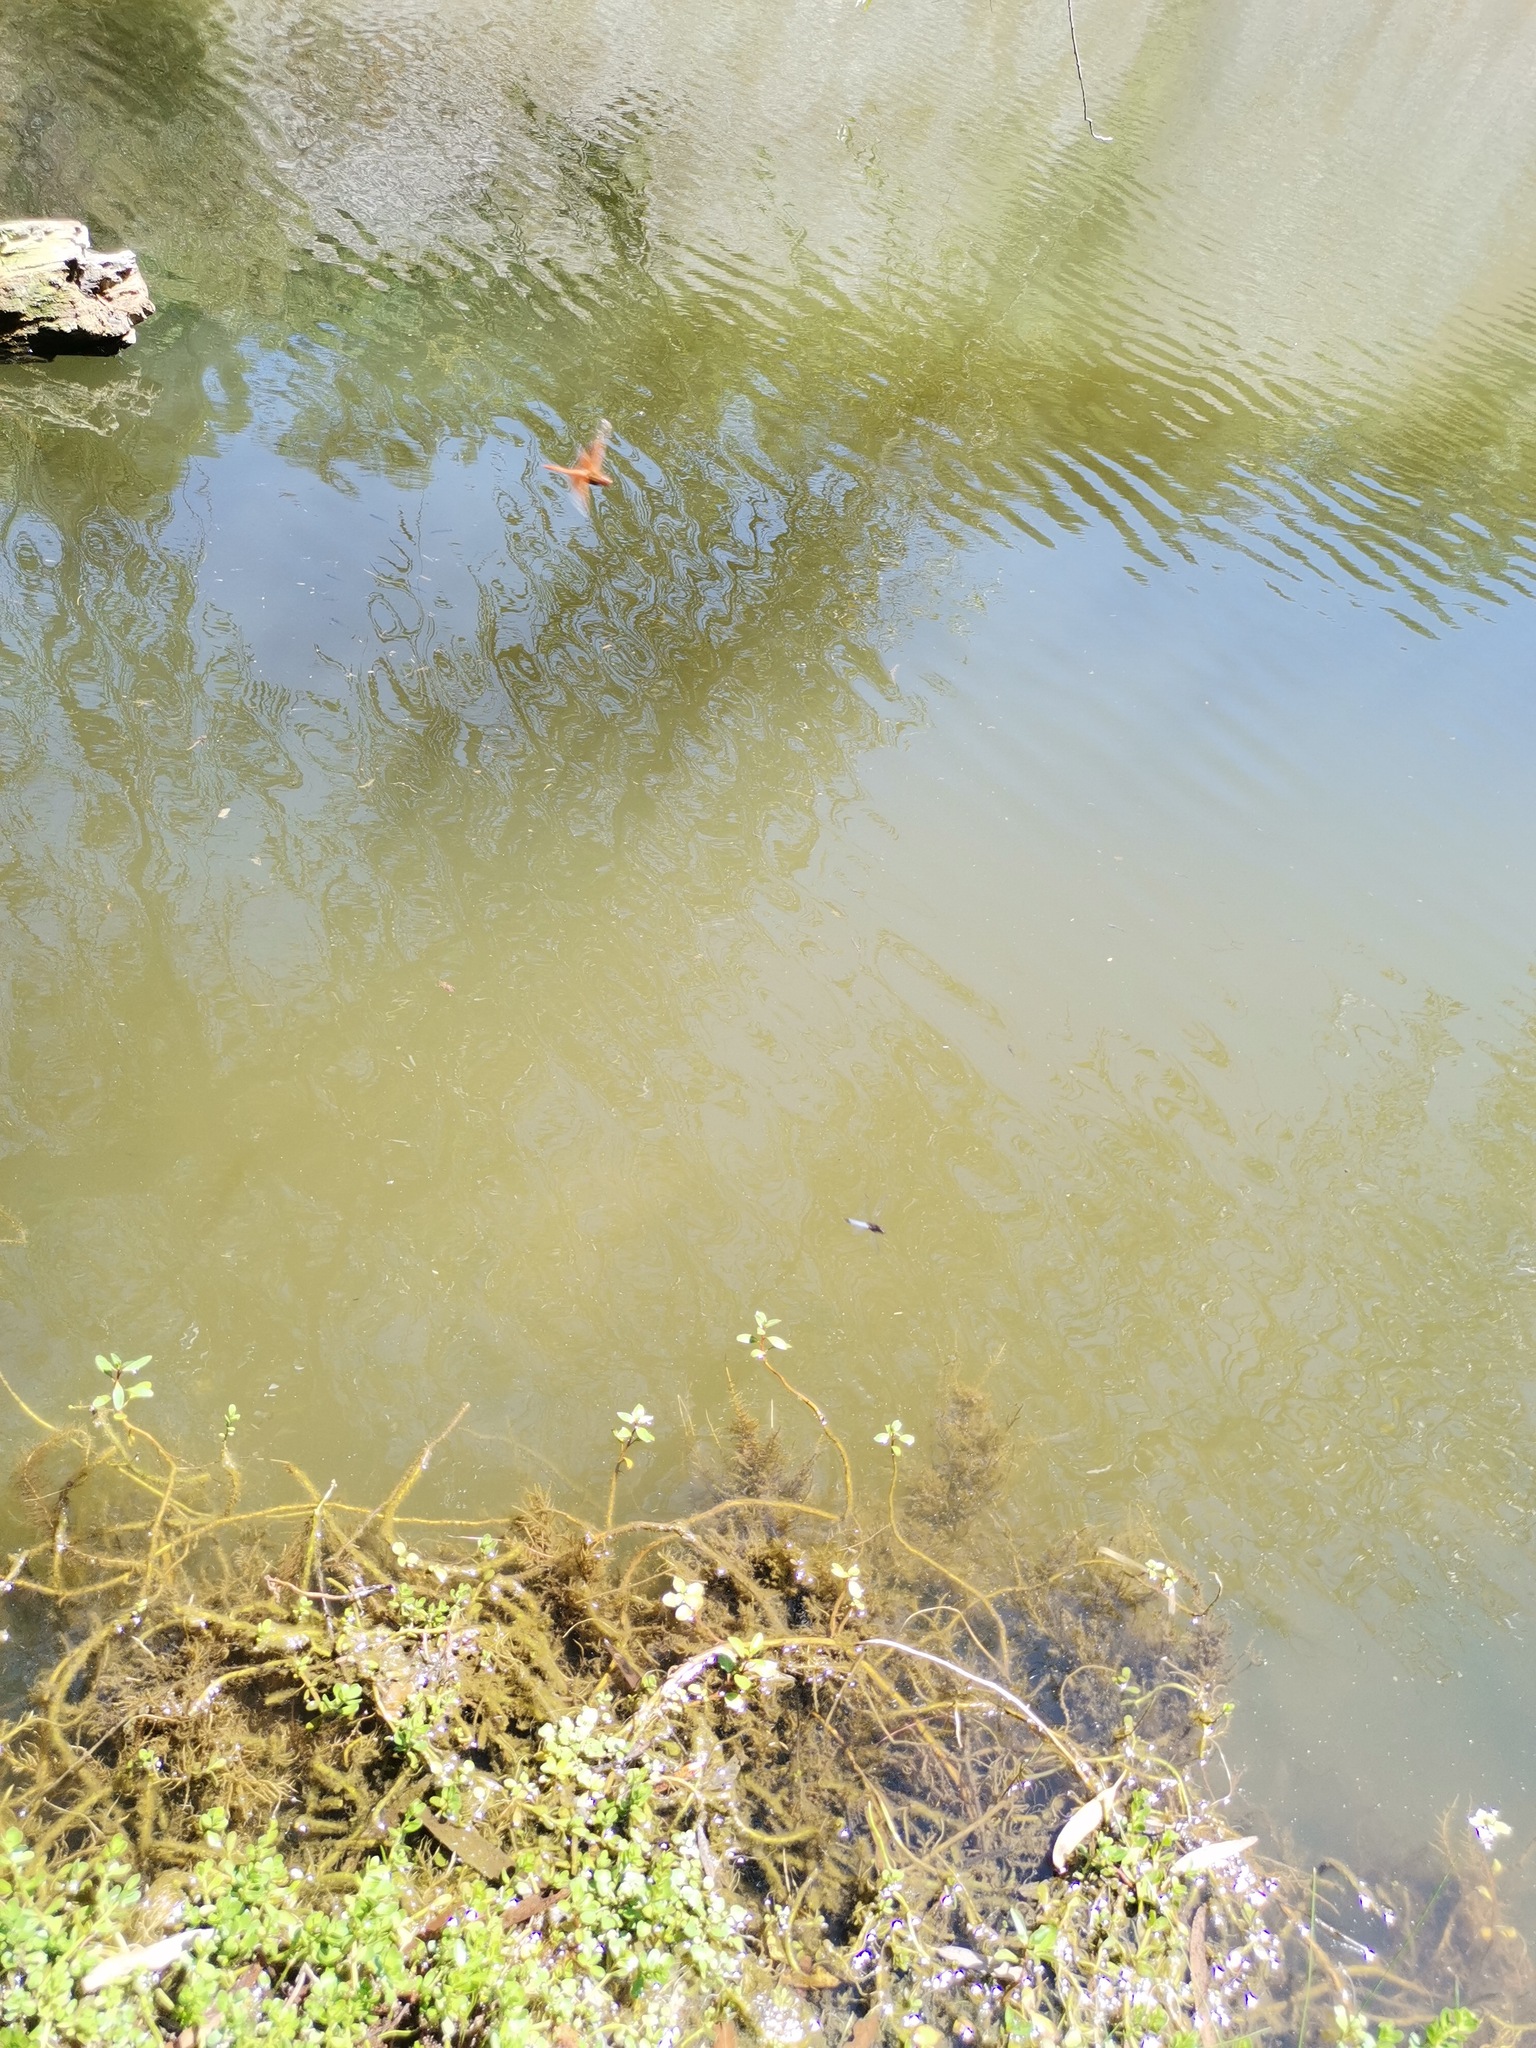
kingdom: Animalia
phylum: Arthropoda
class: Insecta
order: Odonata
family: Libellulidae
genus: Libellula
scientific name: Libellula saturata
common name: Flame skimmer
